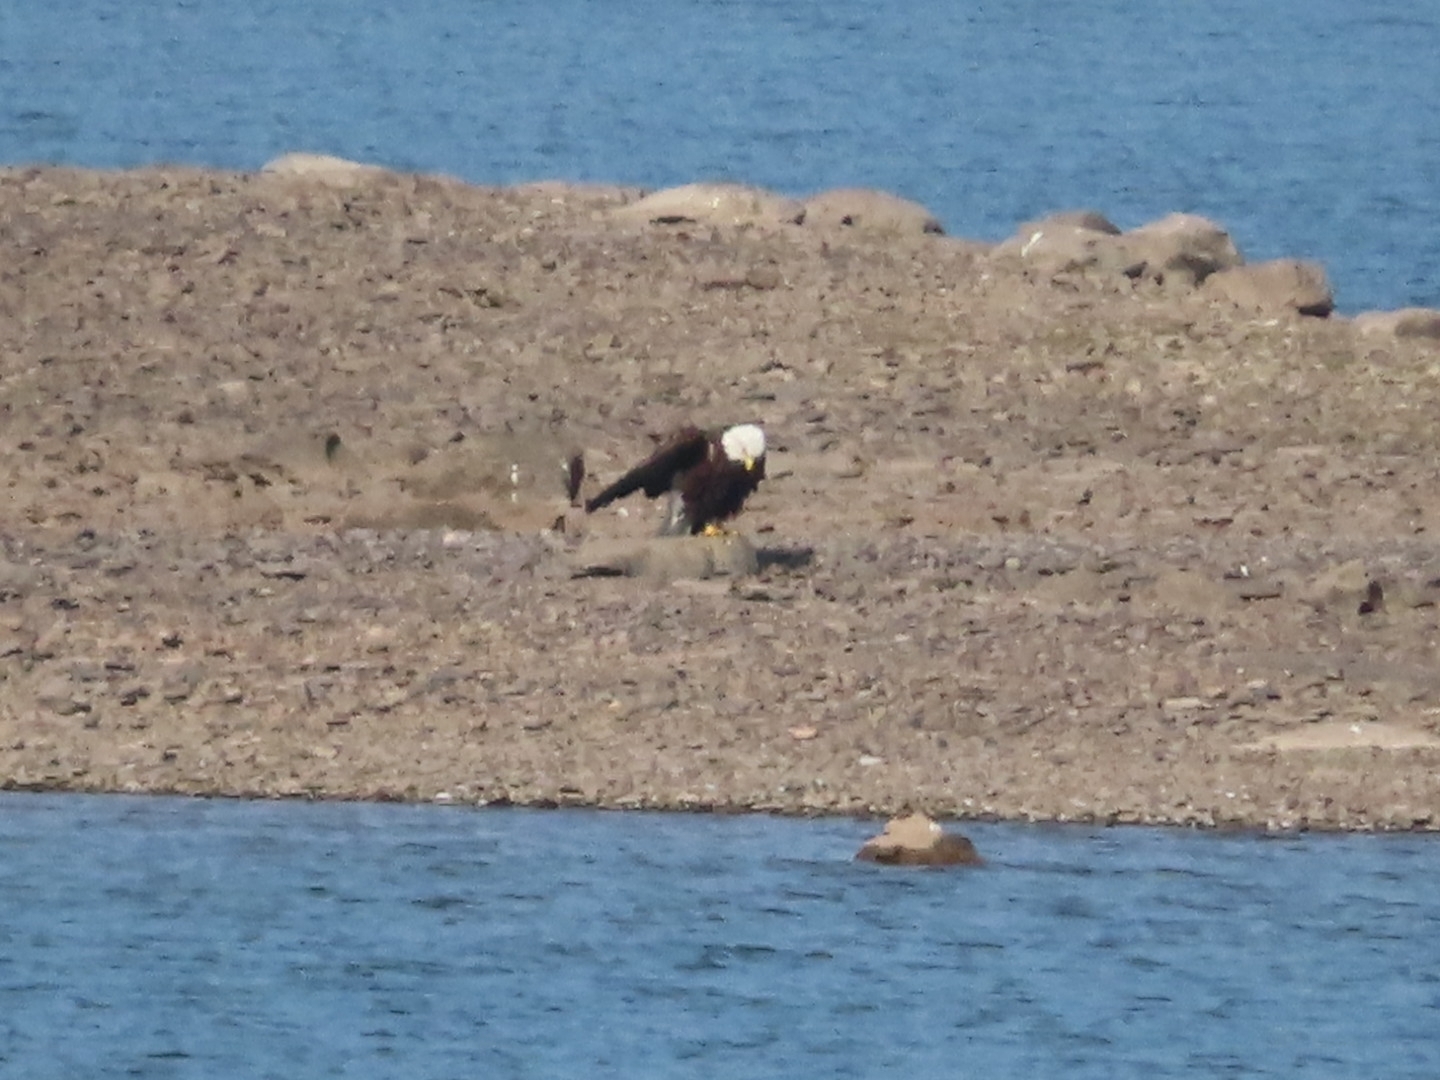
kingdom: Animalia
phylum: Chordata
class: Aves
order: Accipitriformes
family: Accipitridae
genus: Haliaeetus
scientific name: Haliaeetus leucocephalus
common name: Bald eagle
